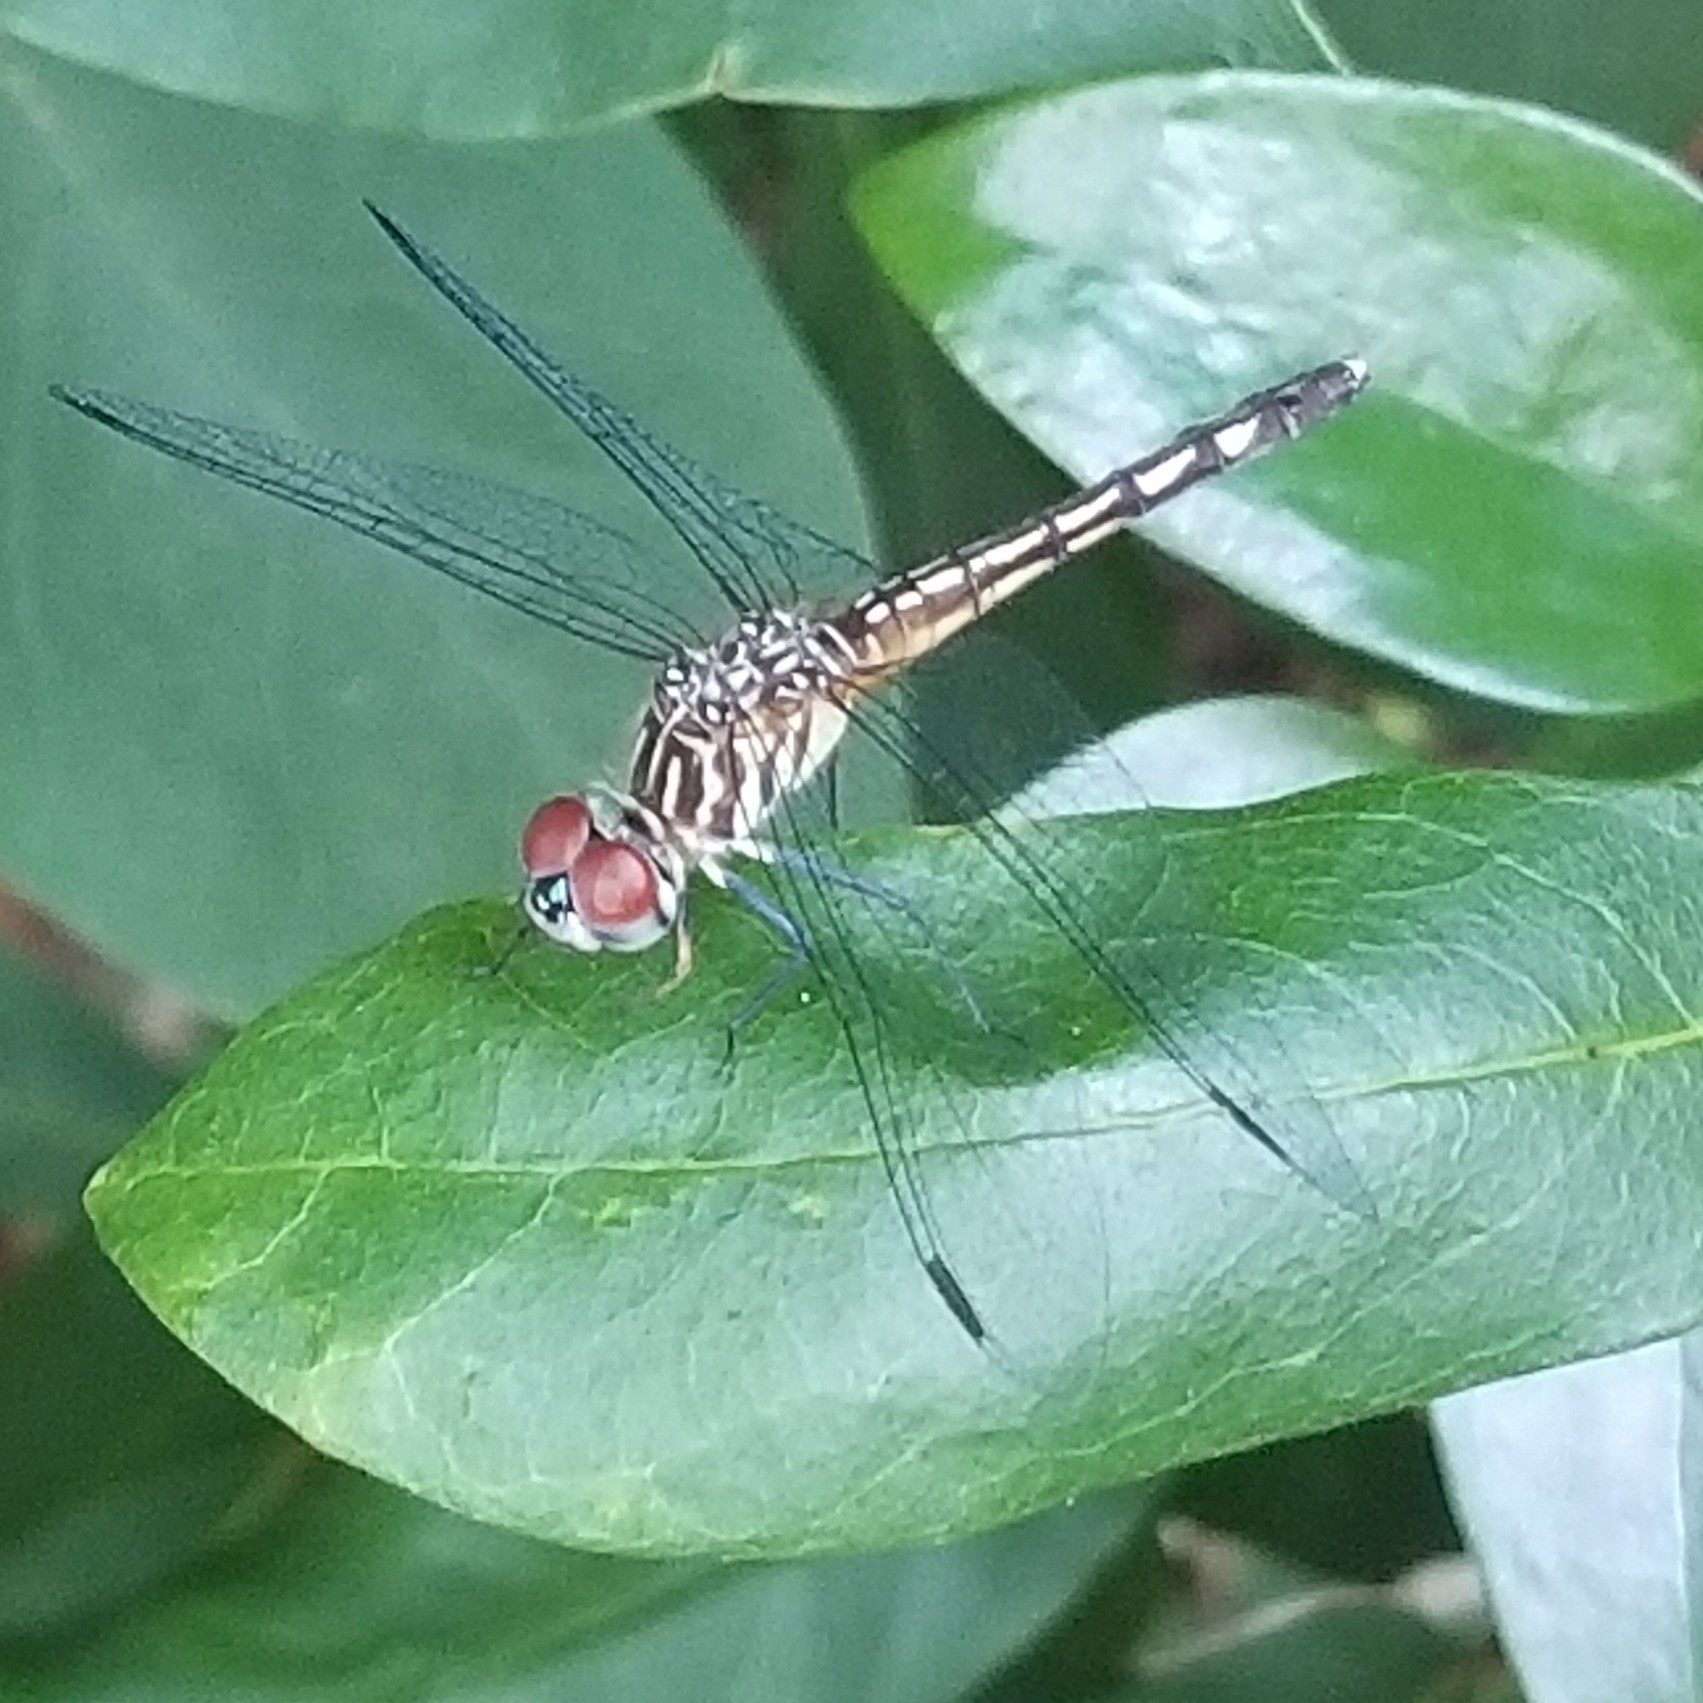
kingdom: Animalia
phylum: Arthropoda
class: Insecta
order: Odonata
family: Libellulidae
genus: Pachydiplax
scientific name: Pachydiplax longipennis
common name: Blue dasher
